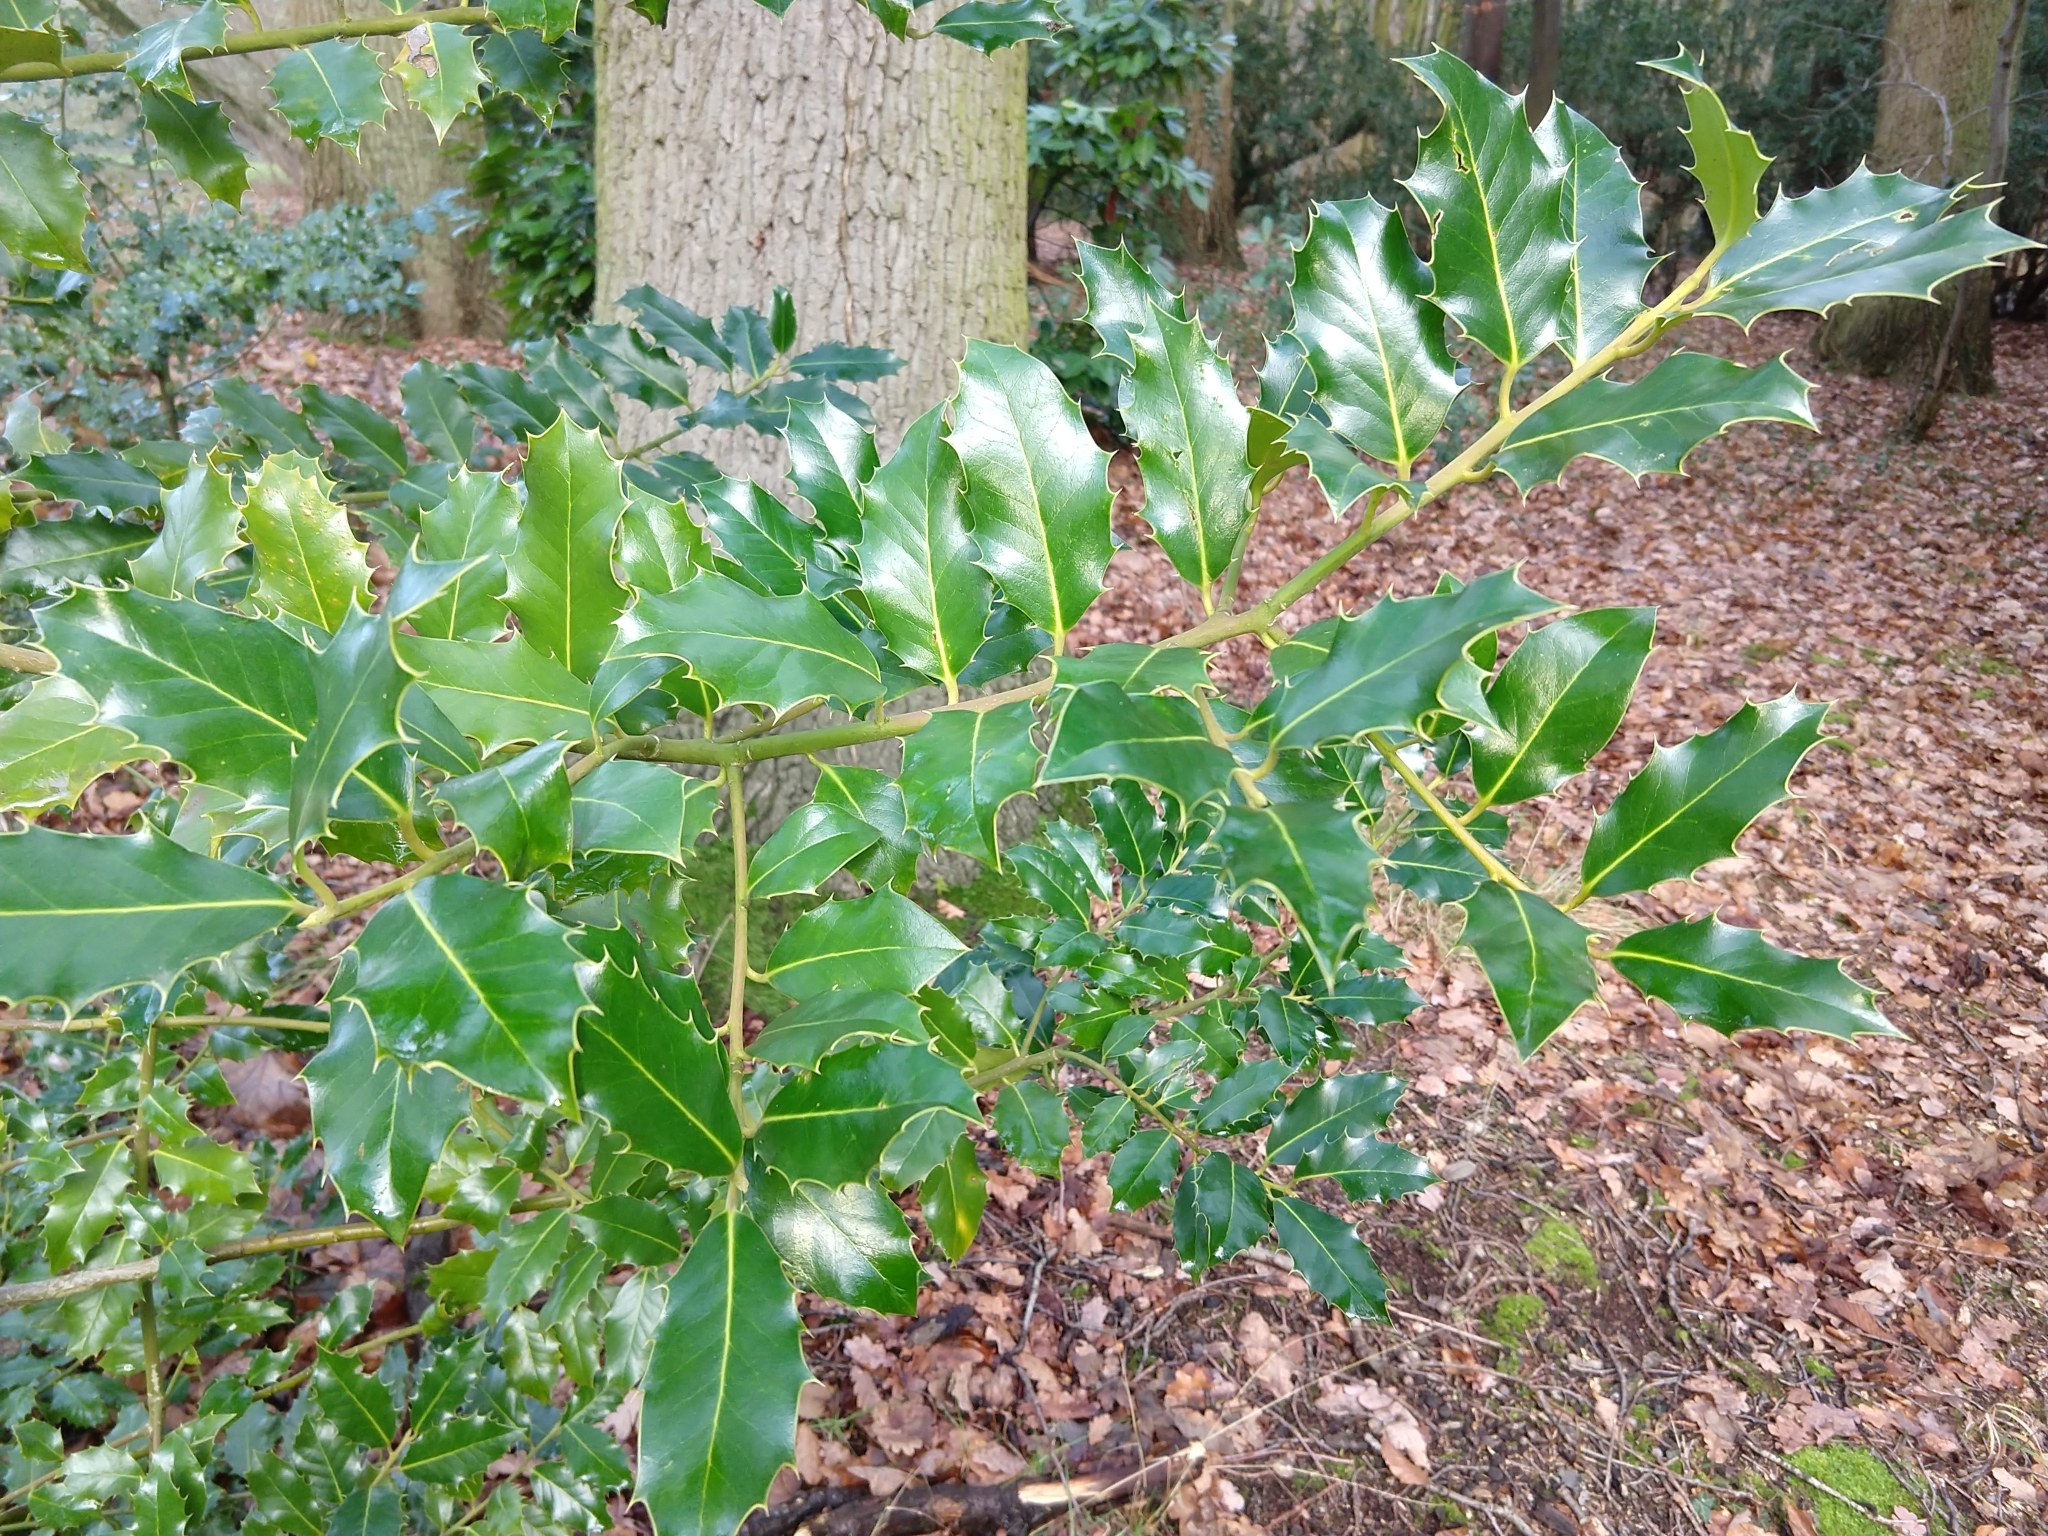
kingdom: Plantae
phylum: Tracheophyta
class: Magnoliopsida
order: Aquifoliales
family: Aquifoliaceae
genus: Ilex
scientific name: Ilex aquifolium
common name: English holly
